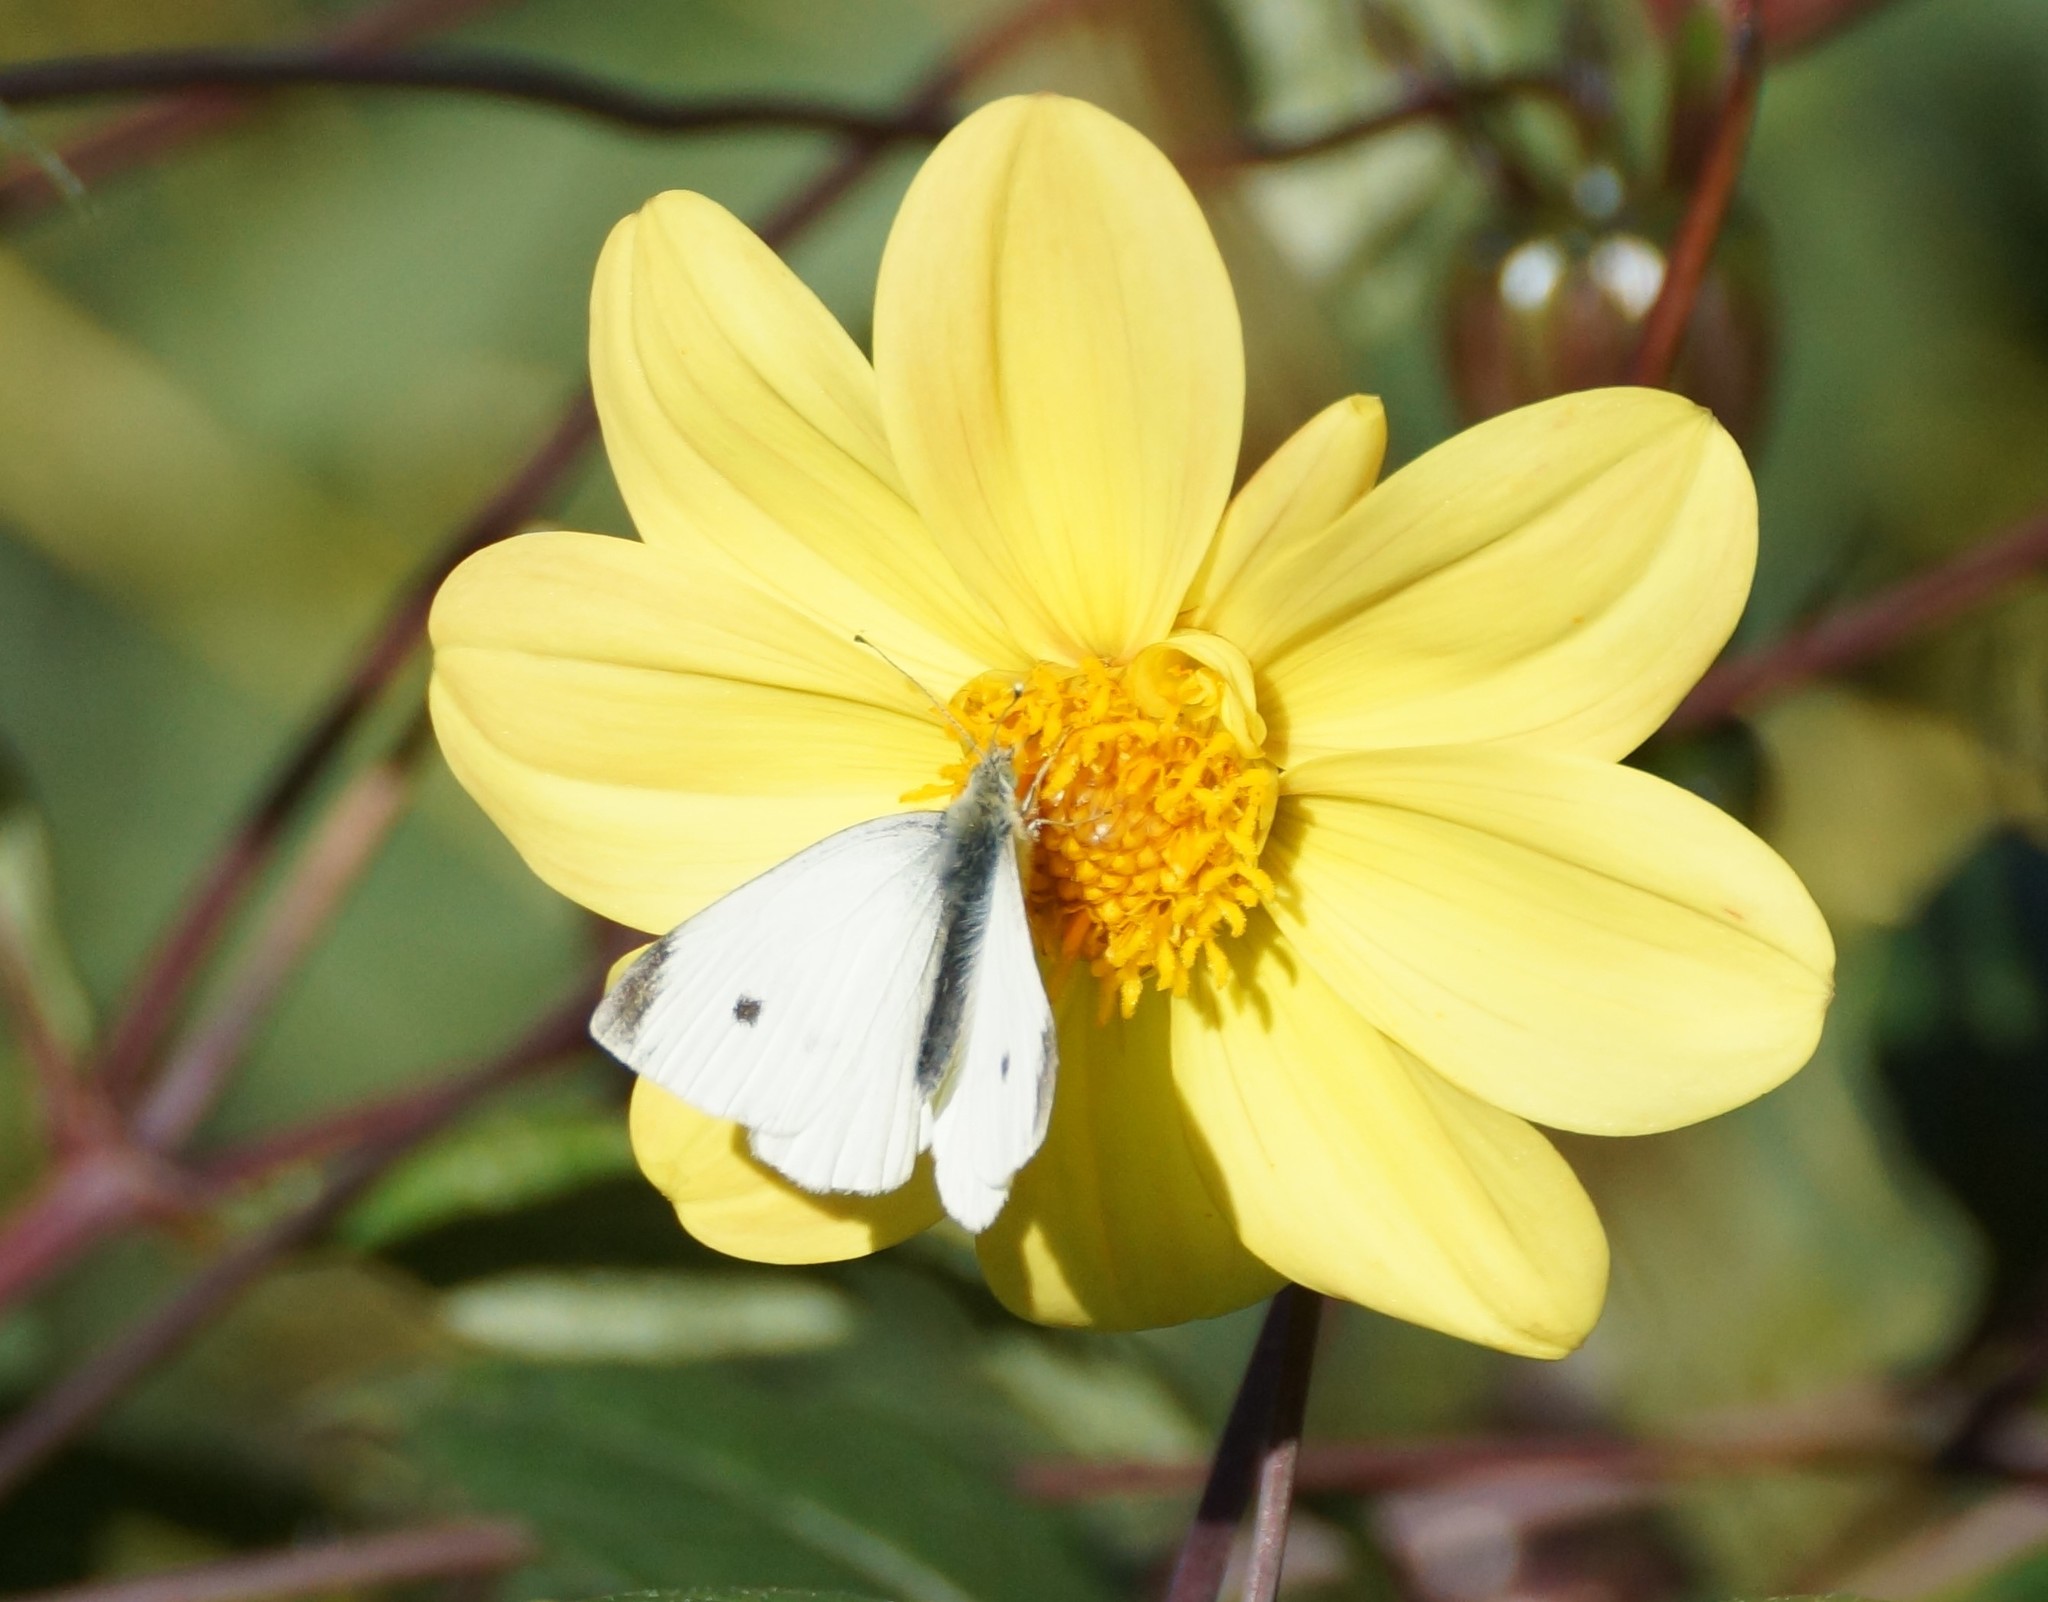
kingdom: Animalia
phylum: Arthropoda
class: Insecta
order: Lepidoptera
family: Pieridae
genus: Pieris
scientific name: Pieris rapae
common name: Small white
